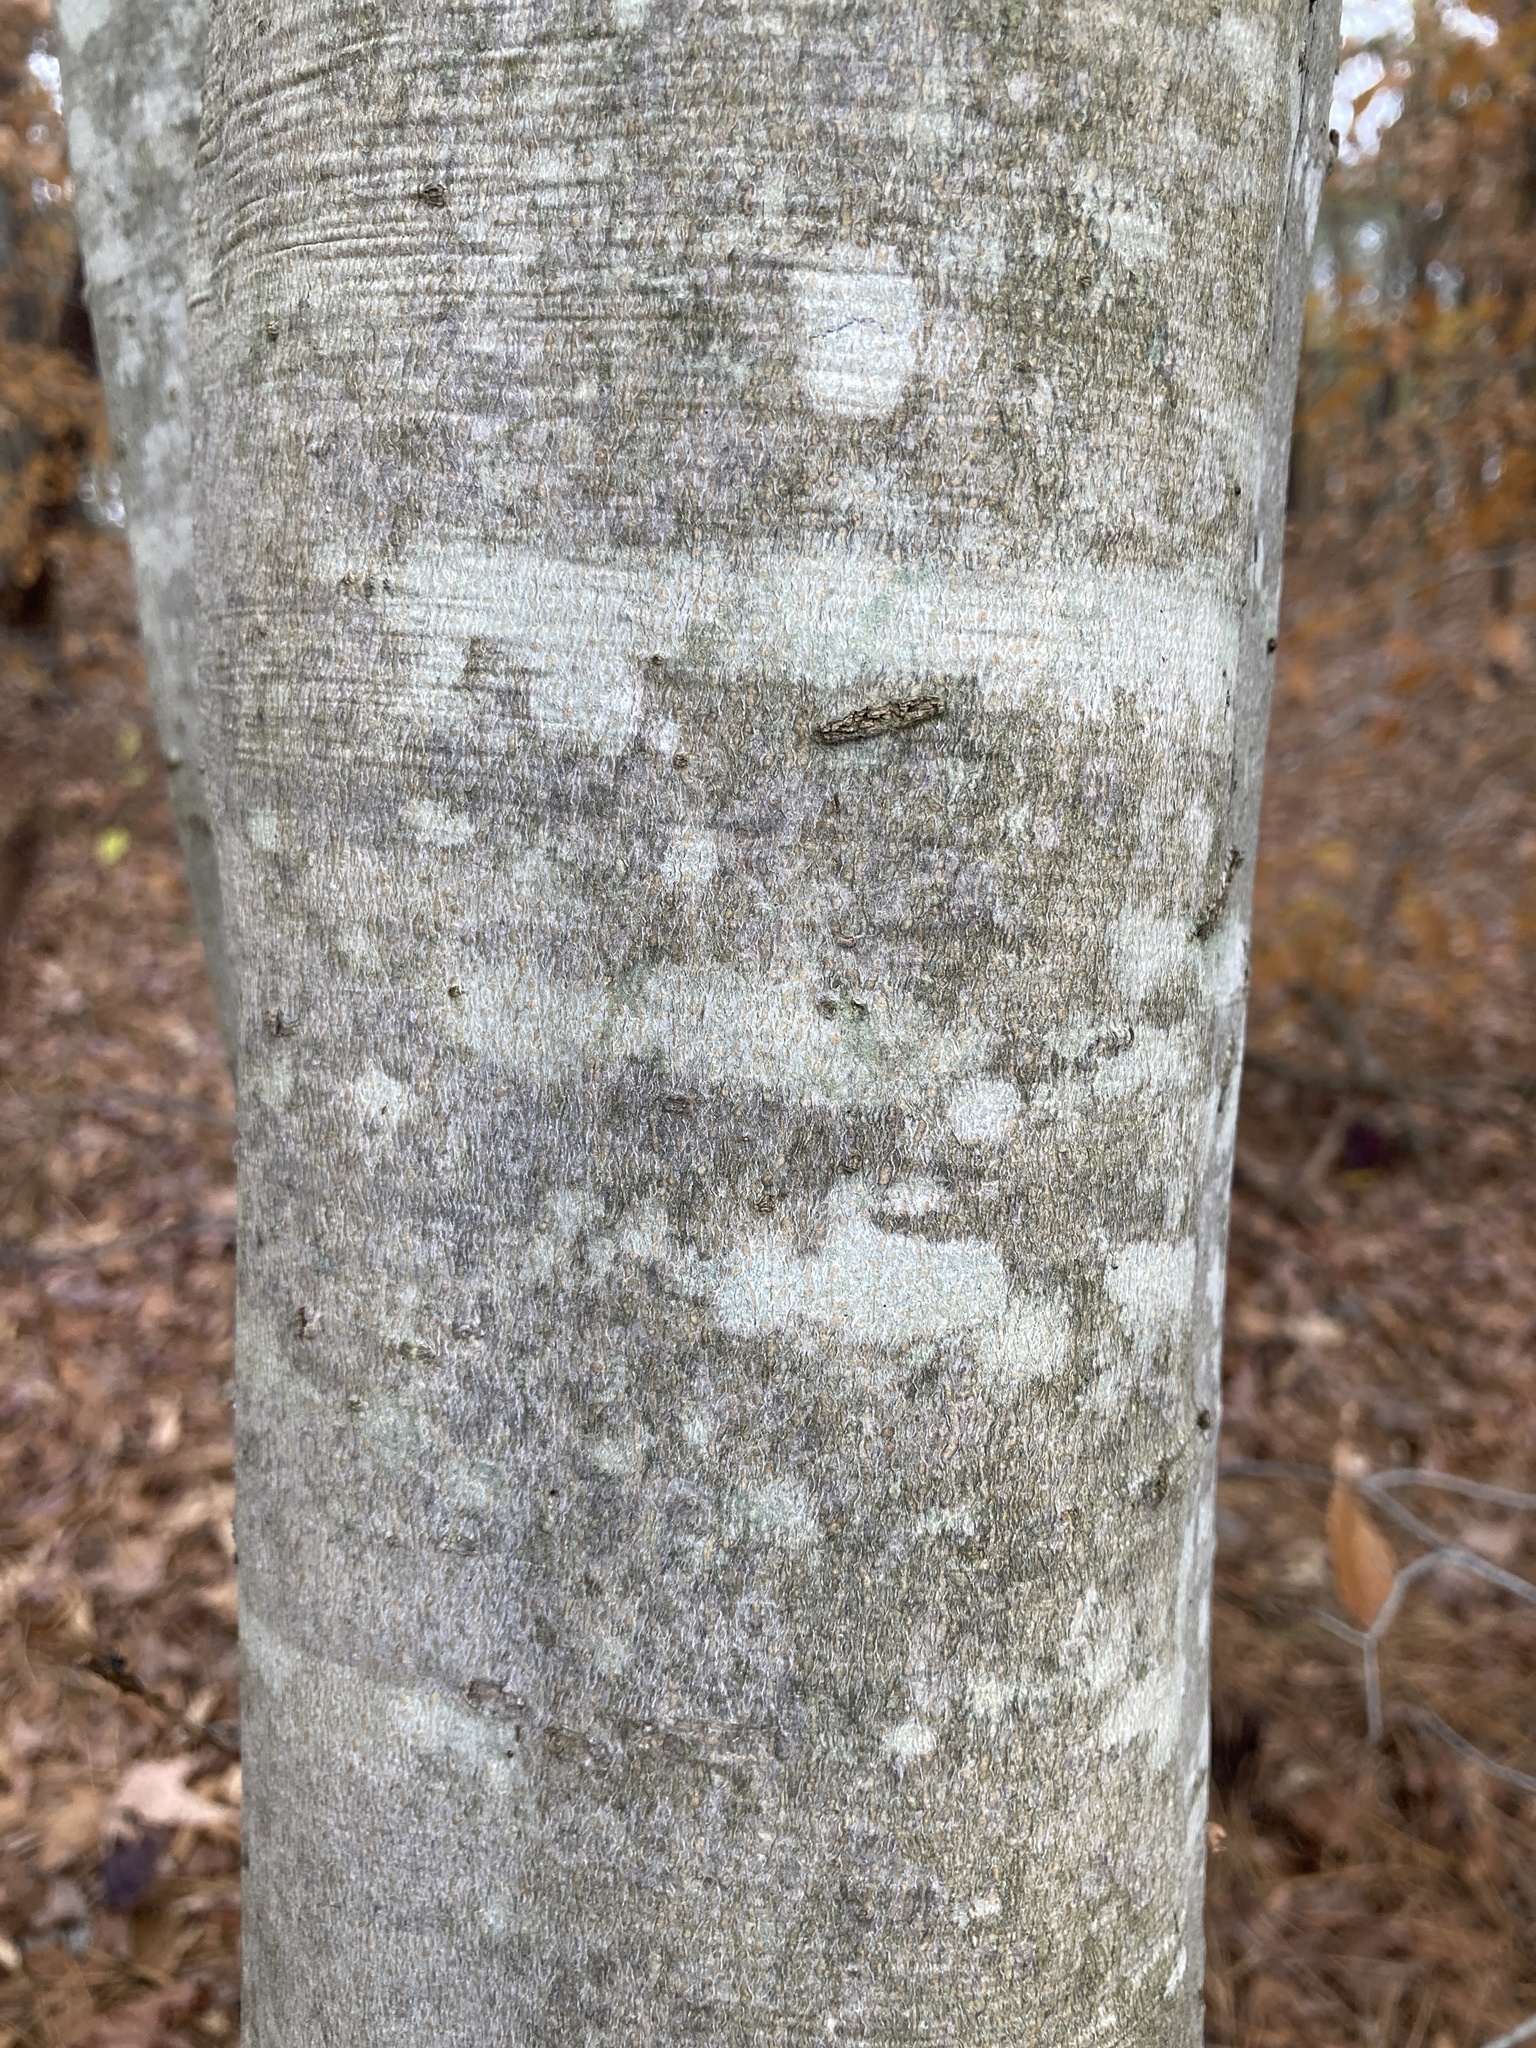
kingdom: Plantae
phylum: Tracheophyta
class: Magnoliopsida
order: Fagales
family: Fagaceae
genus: Fagus
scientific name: Fagus grandifolia
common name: American beech
